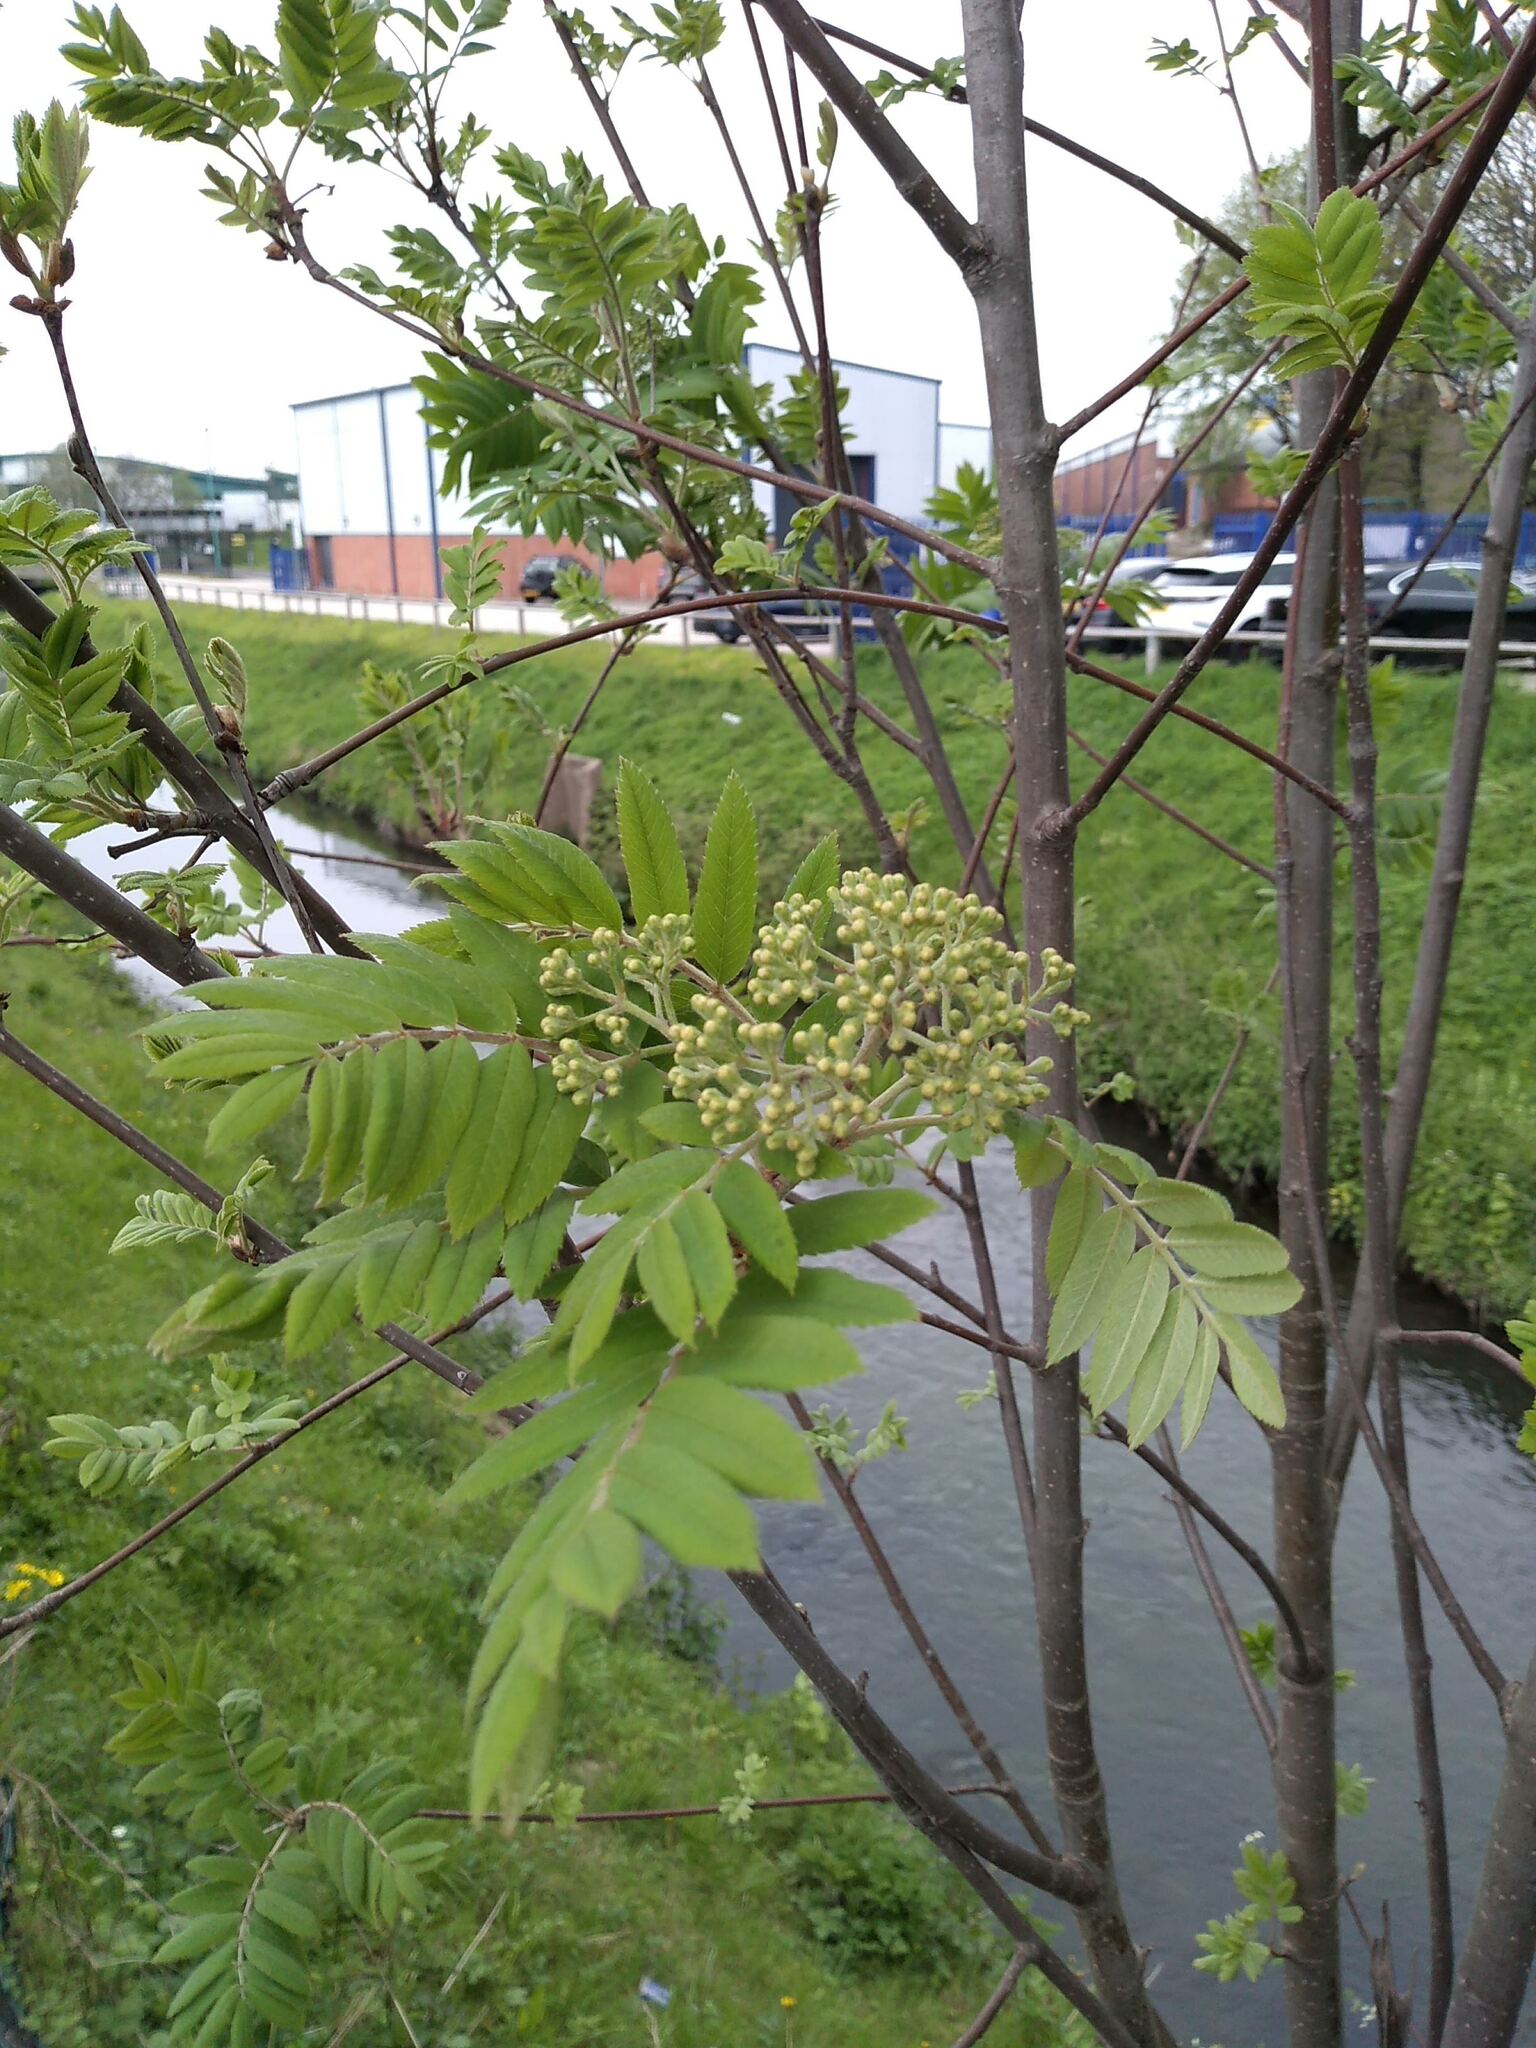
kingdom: Plantae
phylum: Tracheophyta
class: Magnoliopsida
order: Rosales
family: Rosaceae
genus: Sorbus
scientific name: Sorbus aucuparia
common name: Rowan
